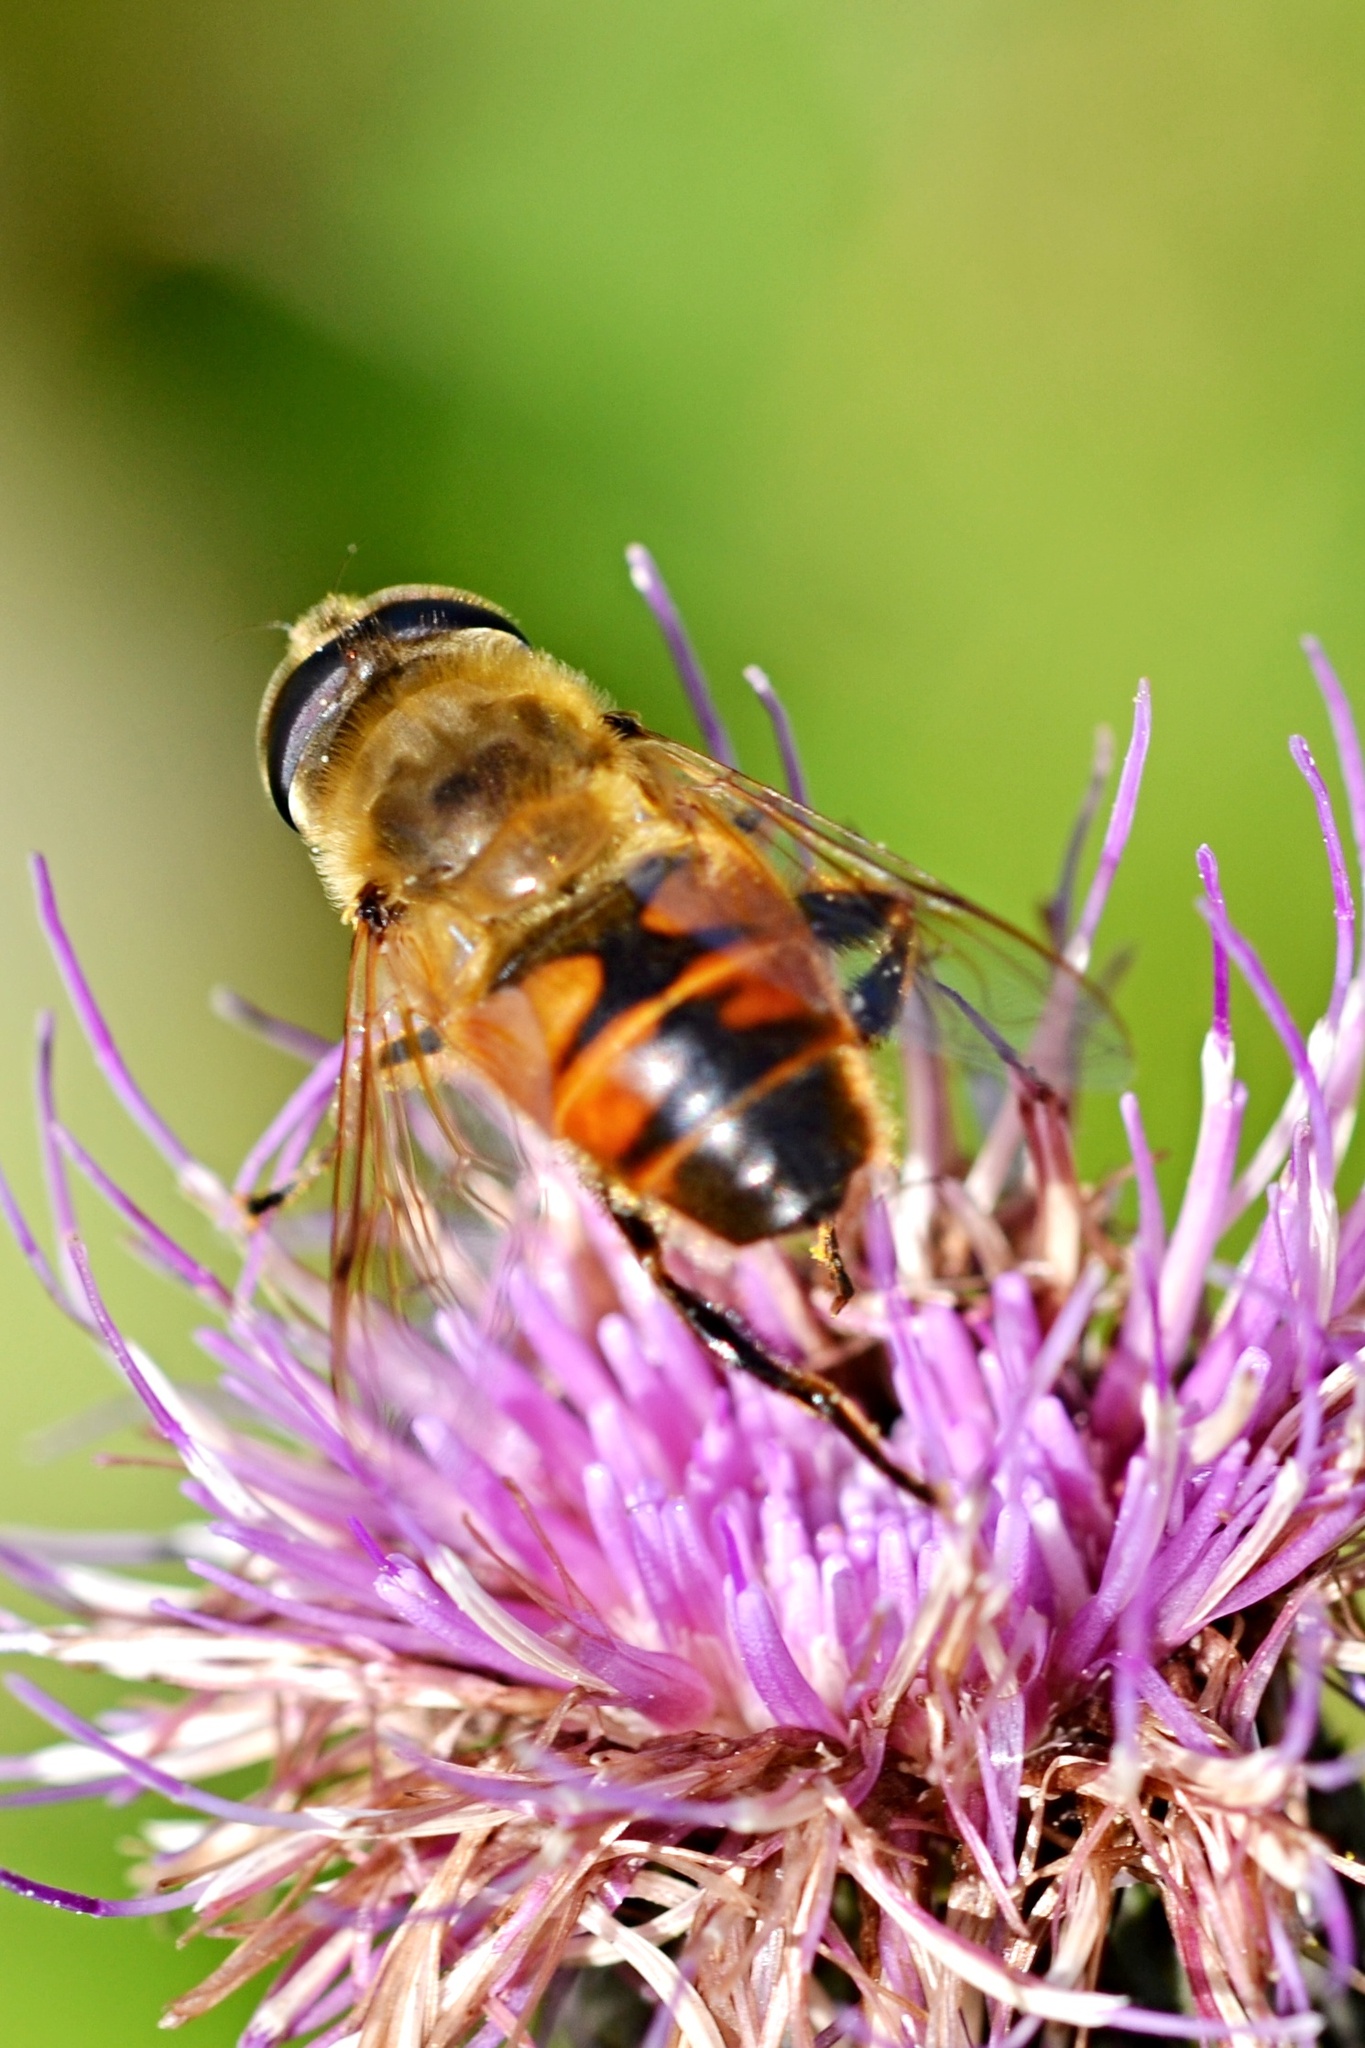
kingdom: Animalia
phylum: Arthropoda
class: Insecta
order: Diptera
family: Syrphidae
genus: Eristalis
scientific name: Eristalis tenax
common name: Drone fly
